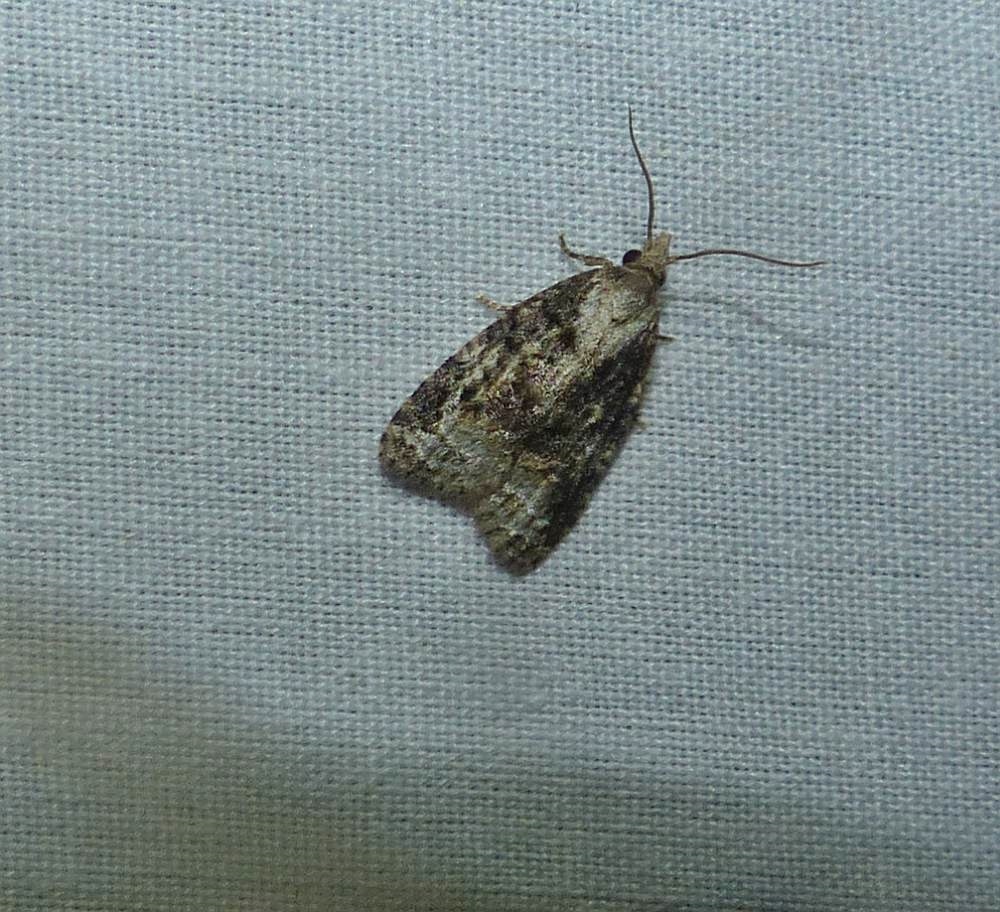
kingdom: Animalia
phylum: Arthropoda
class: Insecta
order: Lepidoptera
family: Tortricidae
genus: Platynota
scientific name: Platynota exasperatana
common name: Exasperating platynota moth
